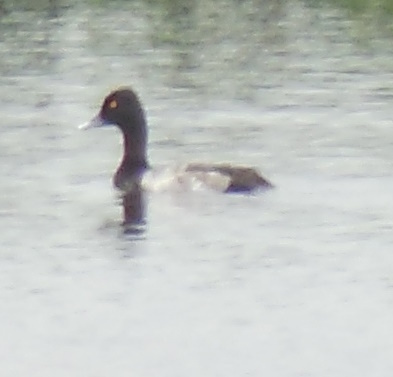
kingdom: Animalia
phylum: Chordata
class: Aves
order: Anseriformes
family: Anatidae
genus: Aythya
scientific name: Aythya affinis
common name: Lesser scaup
